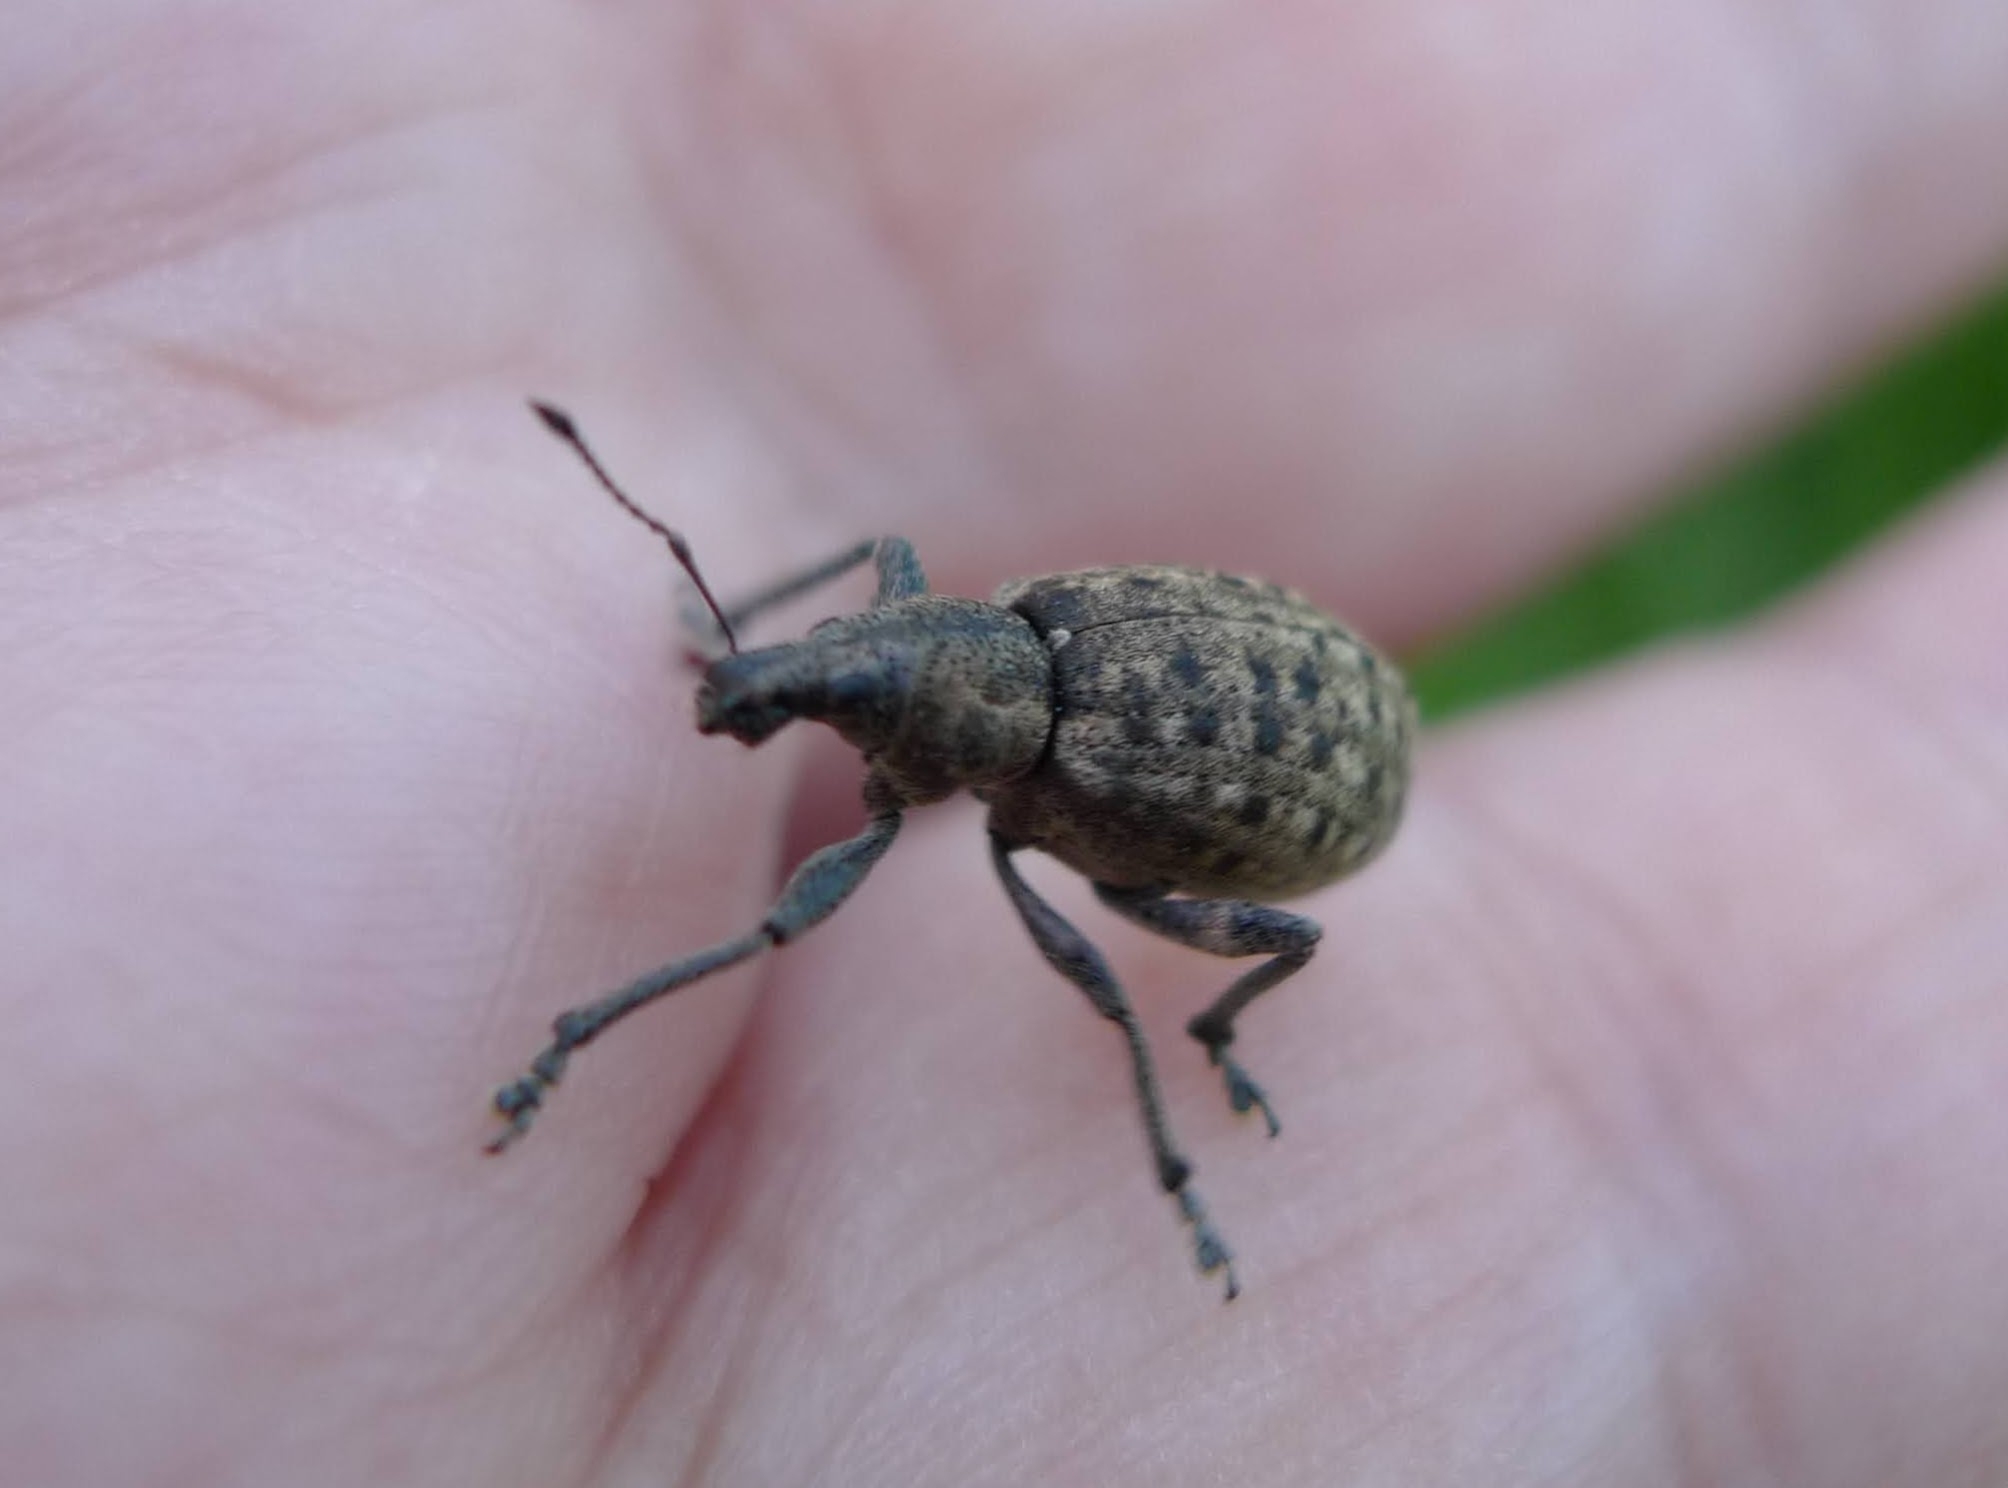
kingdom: Animalia
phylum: Arthropoda
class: Insecta
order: Coleoptera
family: Curculionidae
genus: Liophloeus
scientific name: Liophloeus tessulatus
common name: Weevil
